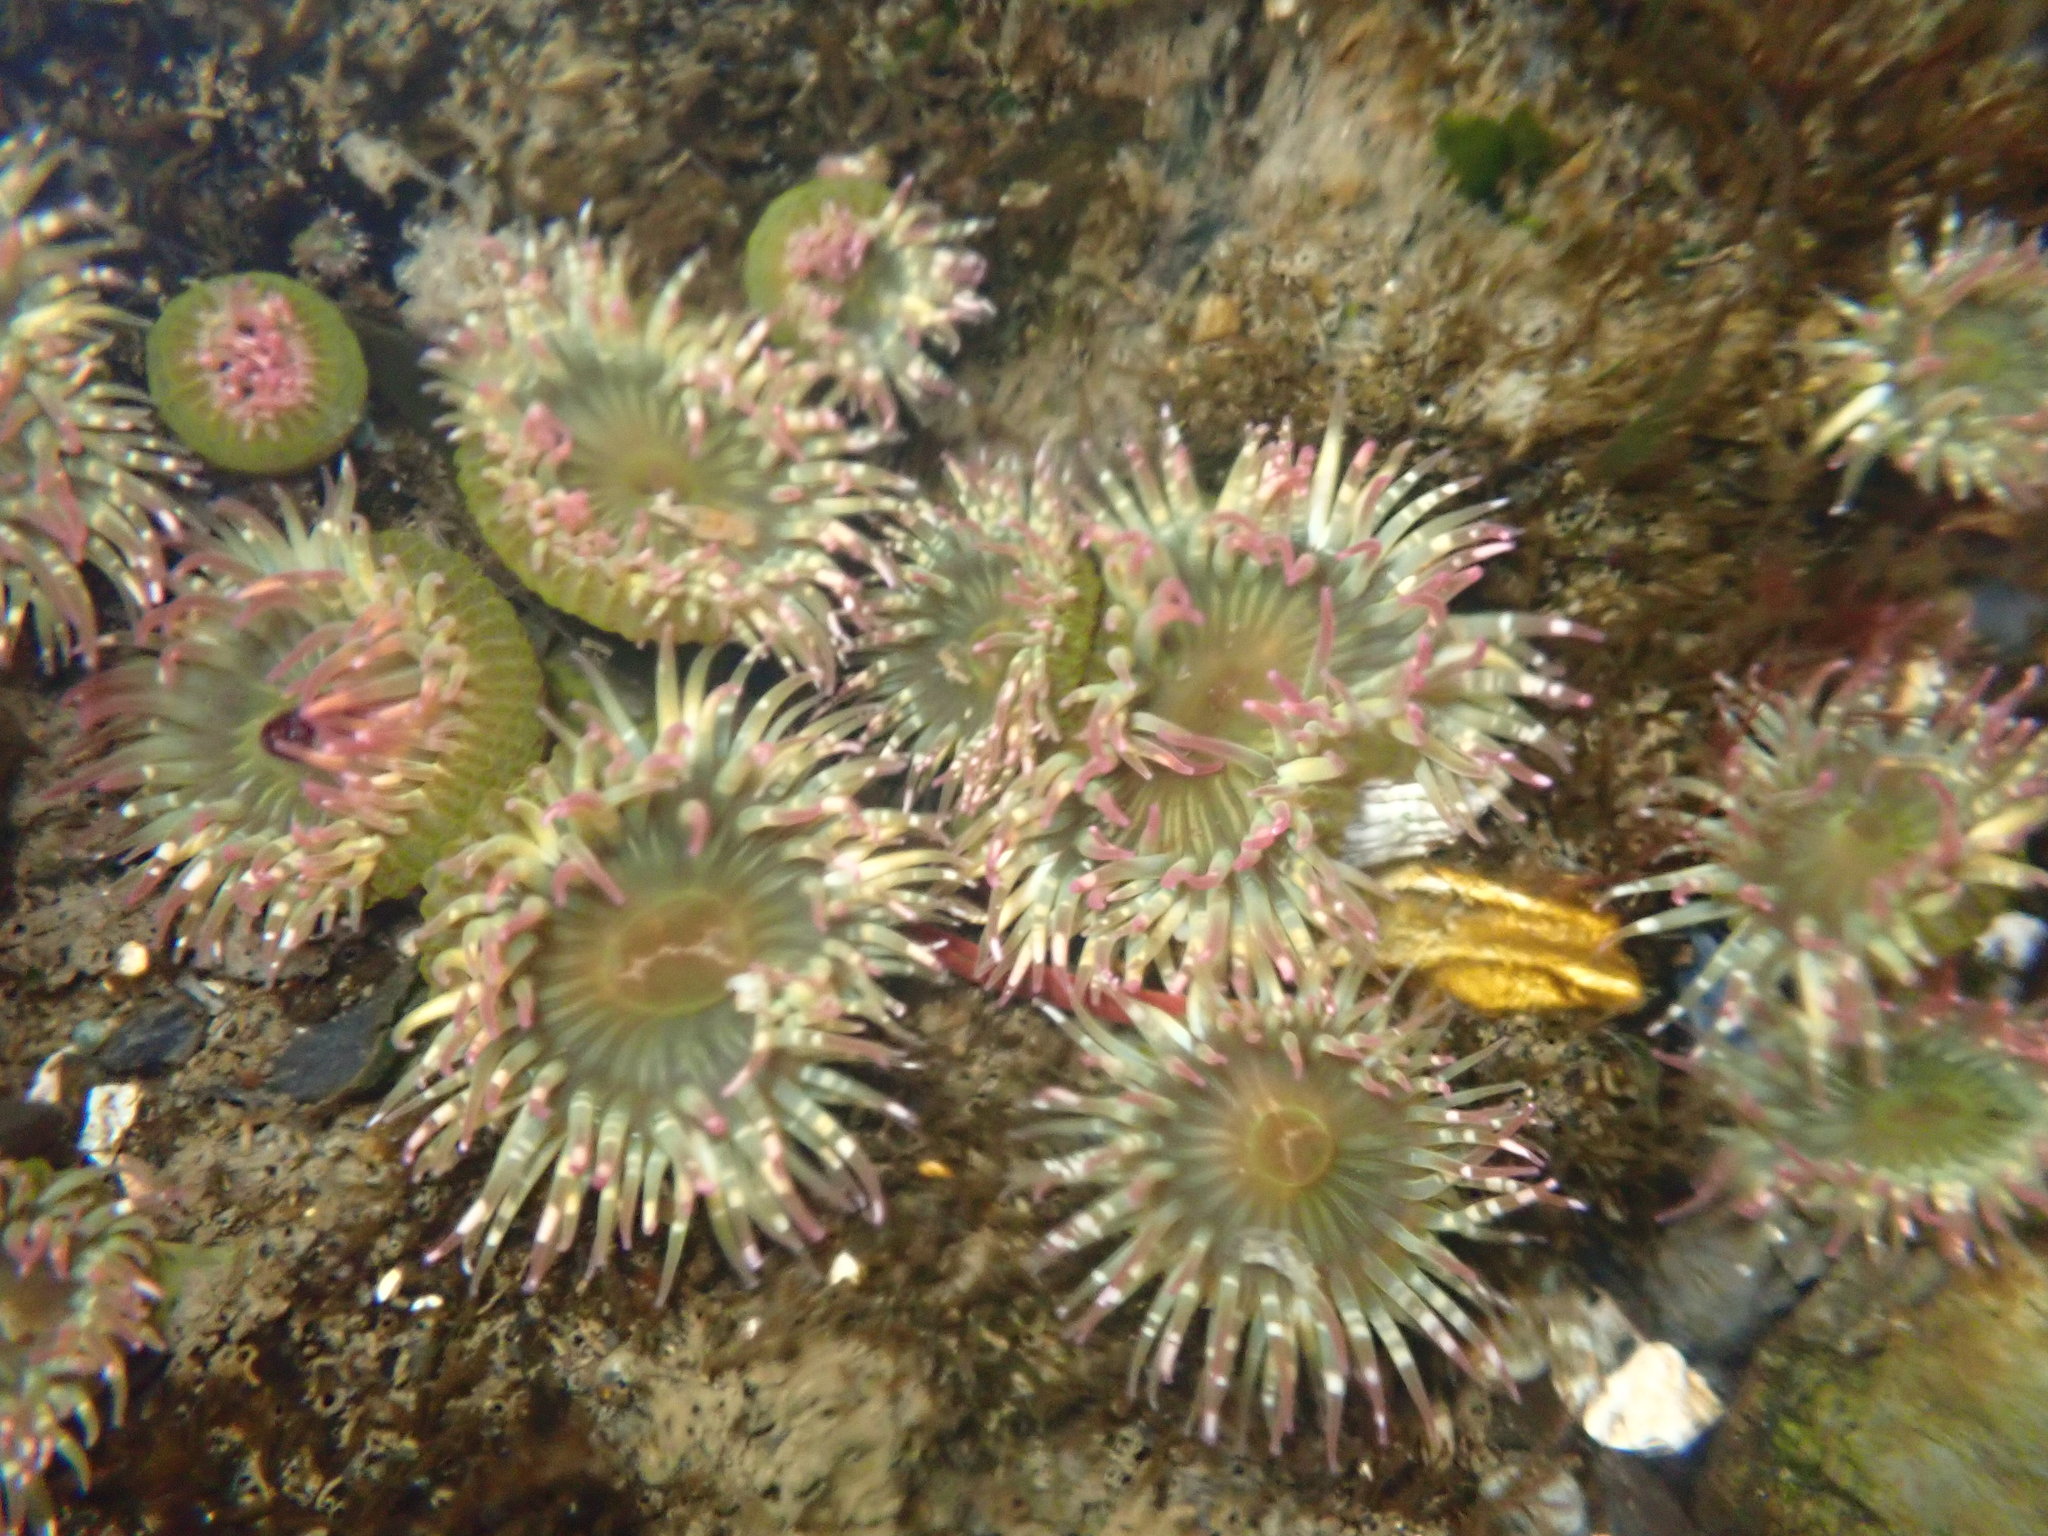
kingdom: Animalia
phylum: Cnidaria
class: Anthozoa
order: Actiniaria
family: Actiniidae
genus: Anthopleura
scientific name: Anthopleura elegantissima
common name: Clonal anemone
